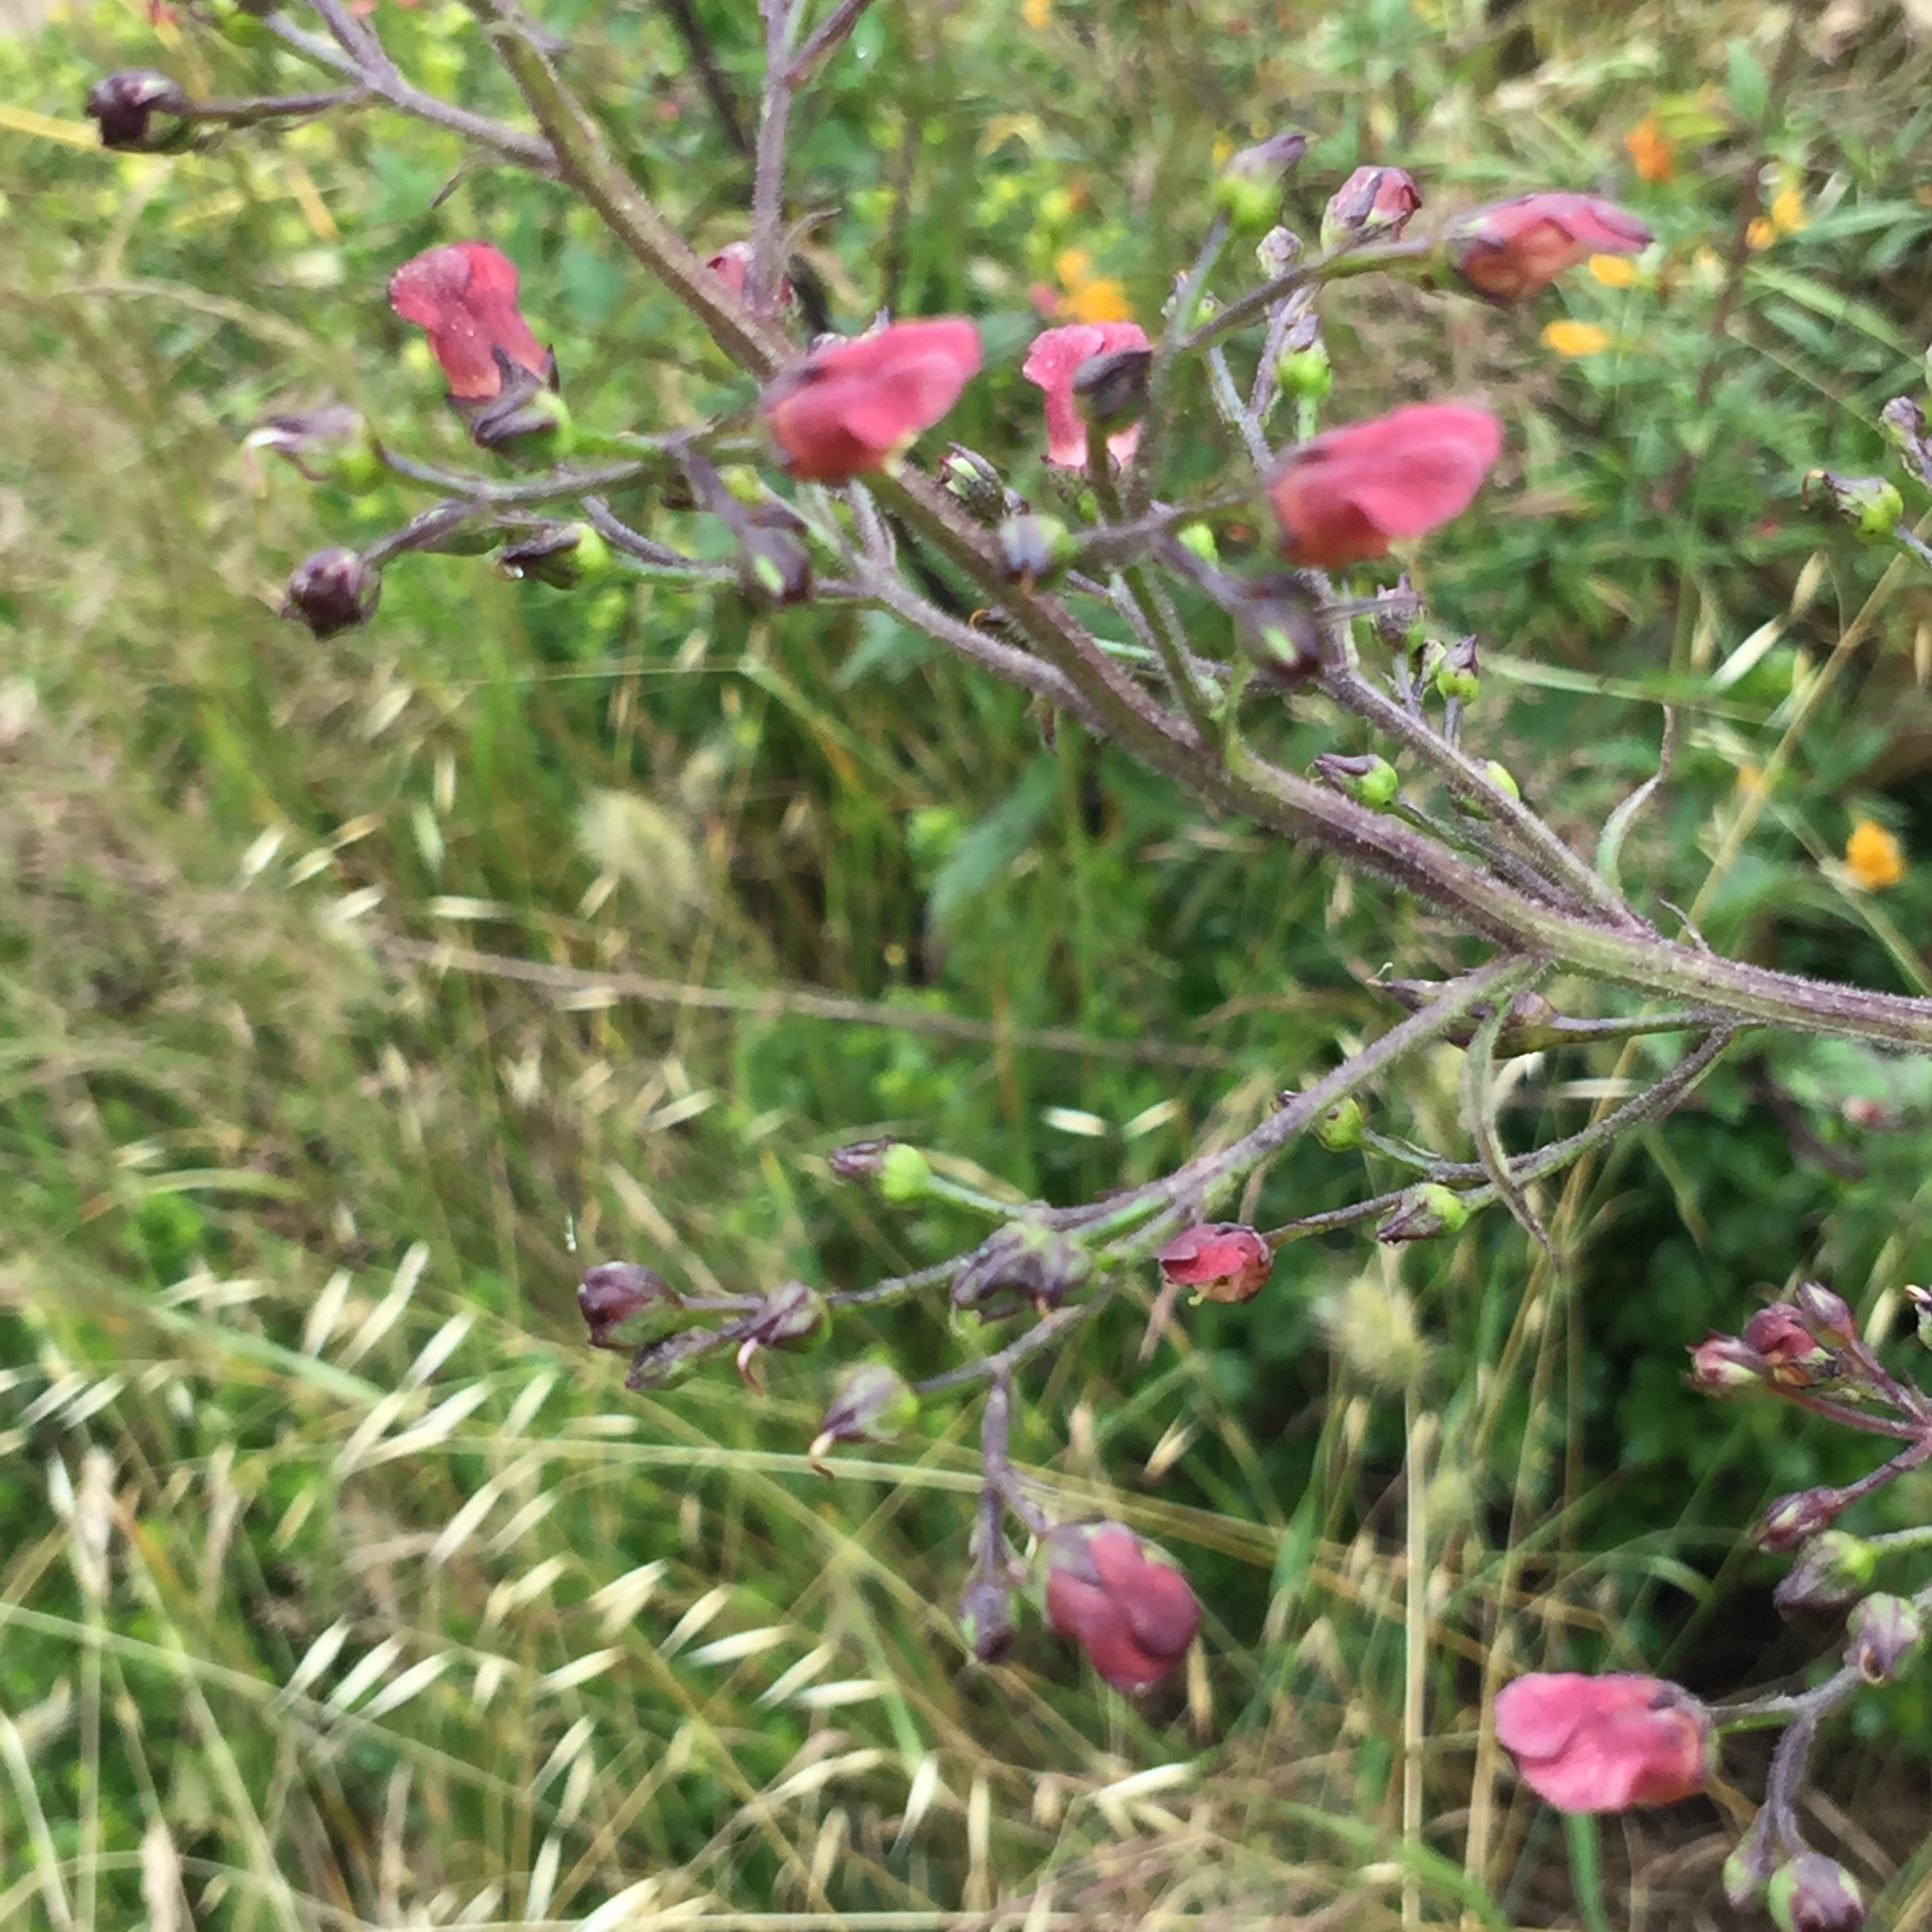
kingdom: Plantae
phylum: Tracheophyta
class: Magnoliopsida
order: Lamiales
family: Scrophulariaceae
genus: Scrophularia
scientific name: Scrophularia californica
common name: California figwort
